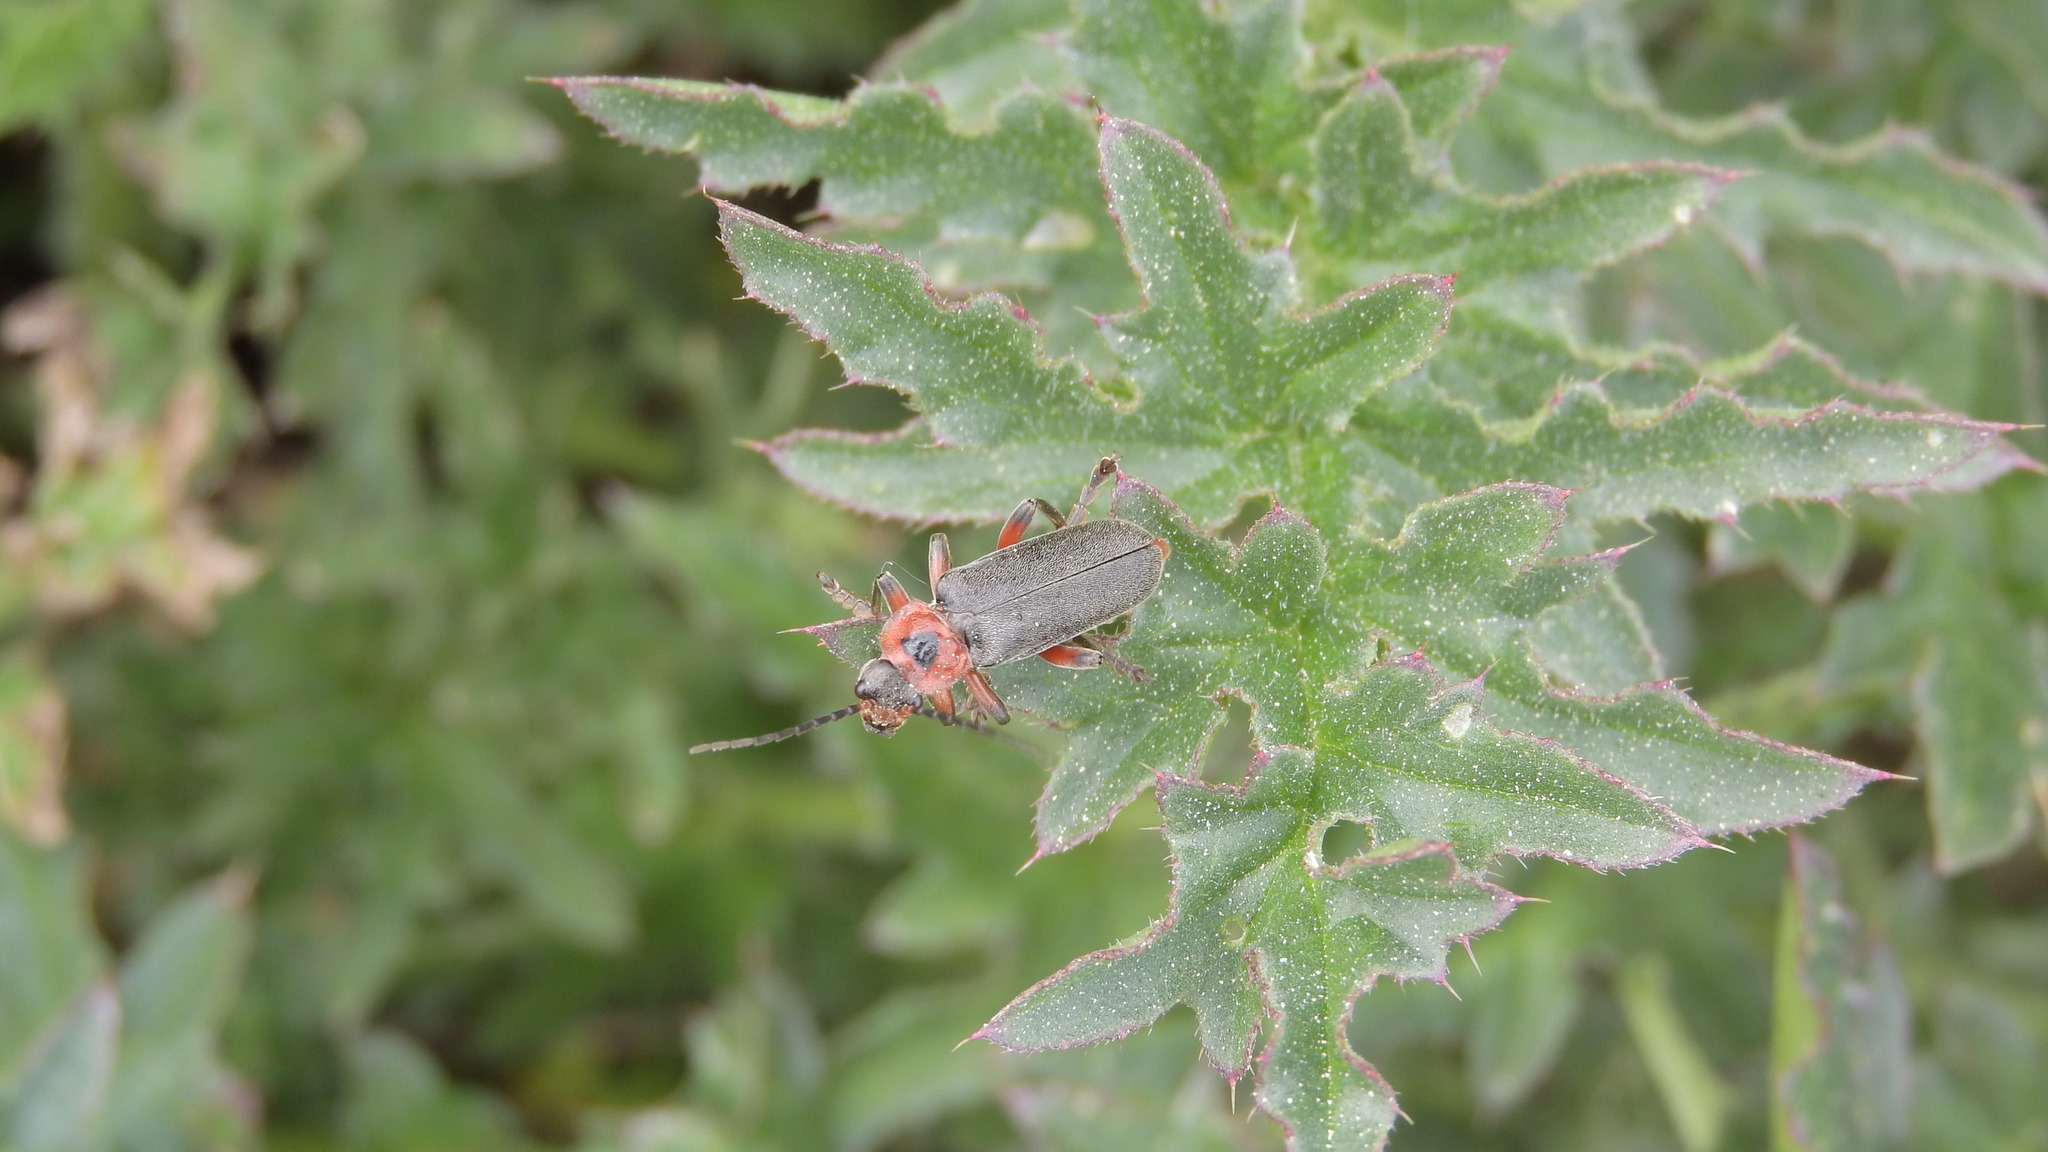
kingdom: Animalia
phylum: Arthropoda
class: Insecta
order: Coleoptera
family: Cantharidae
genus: Cantharis
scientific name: Cantharis rustica
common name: Soldier beetle
